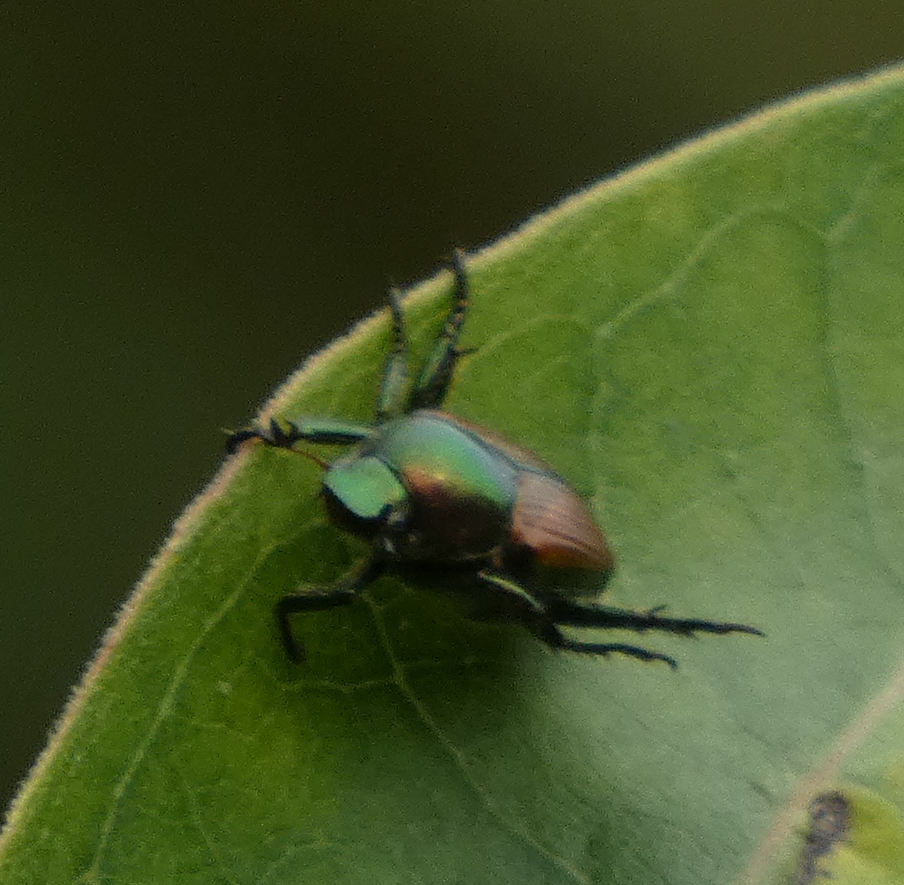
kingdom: Animalia
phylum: Arthropoda
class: Insecta
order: Coleoptera
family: Scarabaeidae
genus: Popillia
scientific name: Popillia japonica
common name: Japanese beetle
